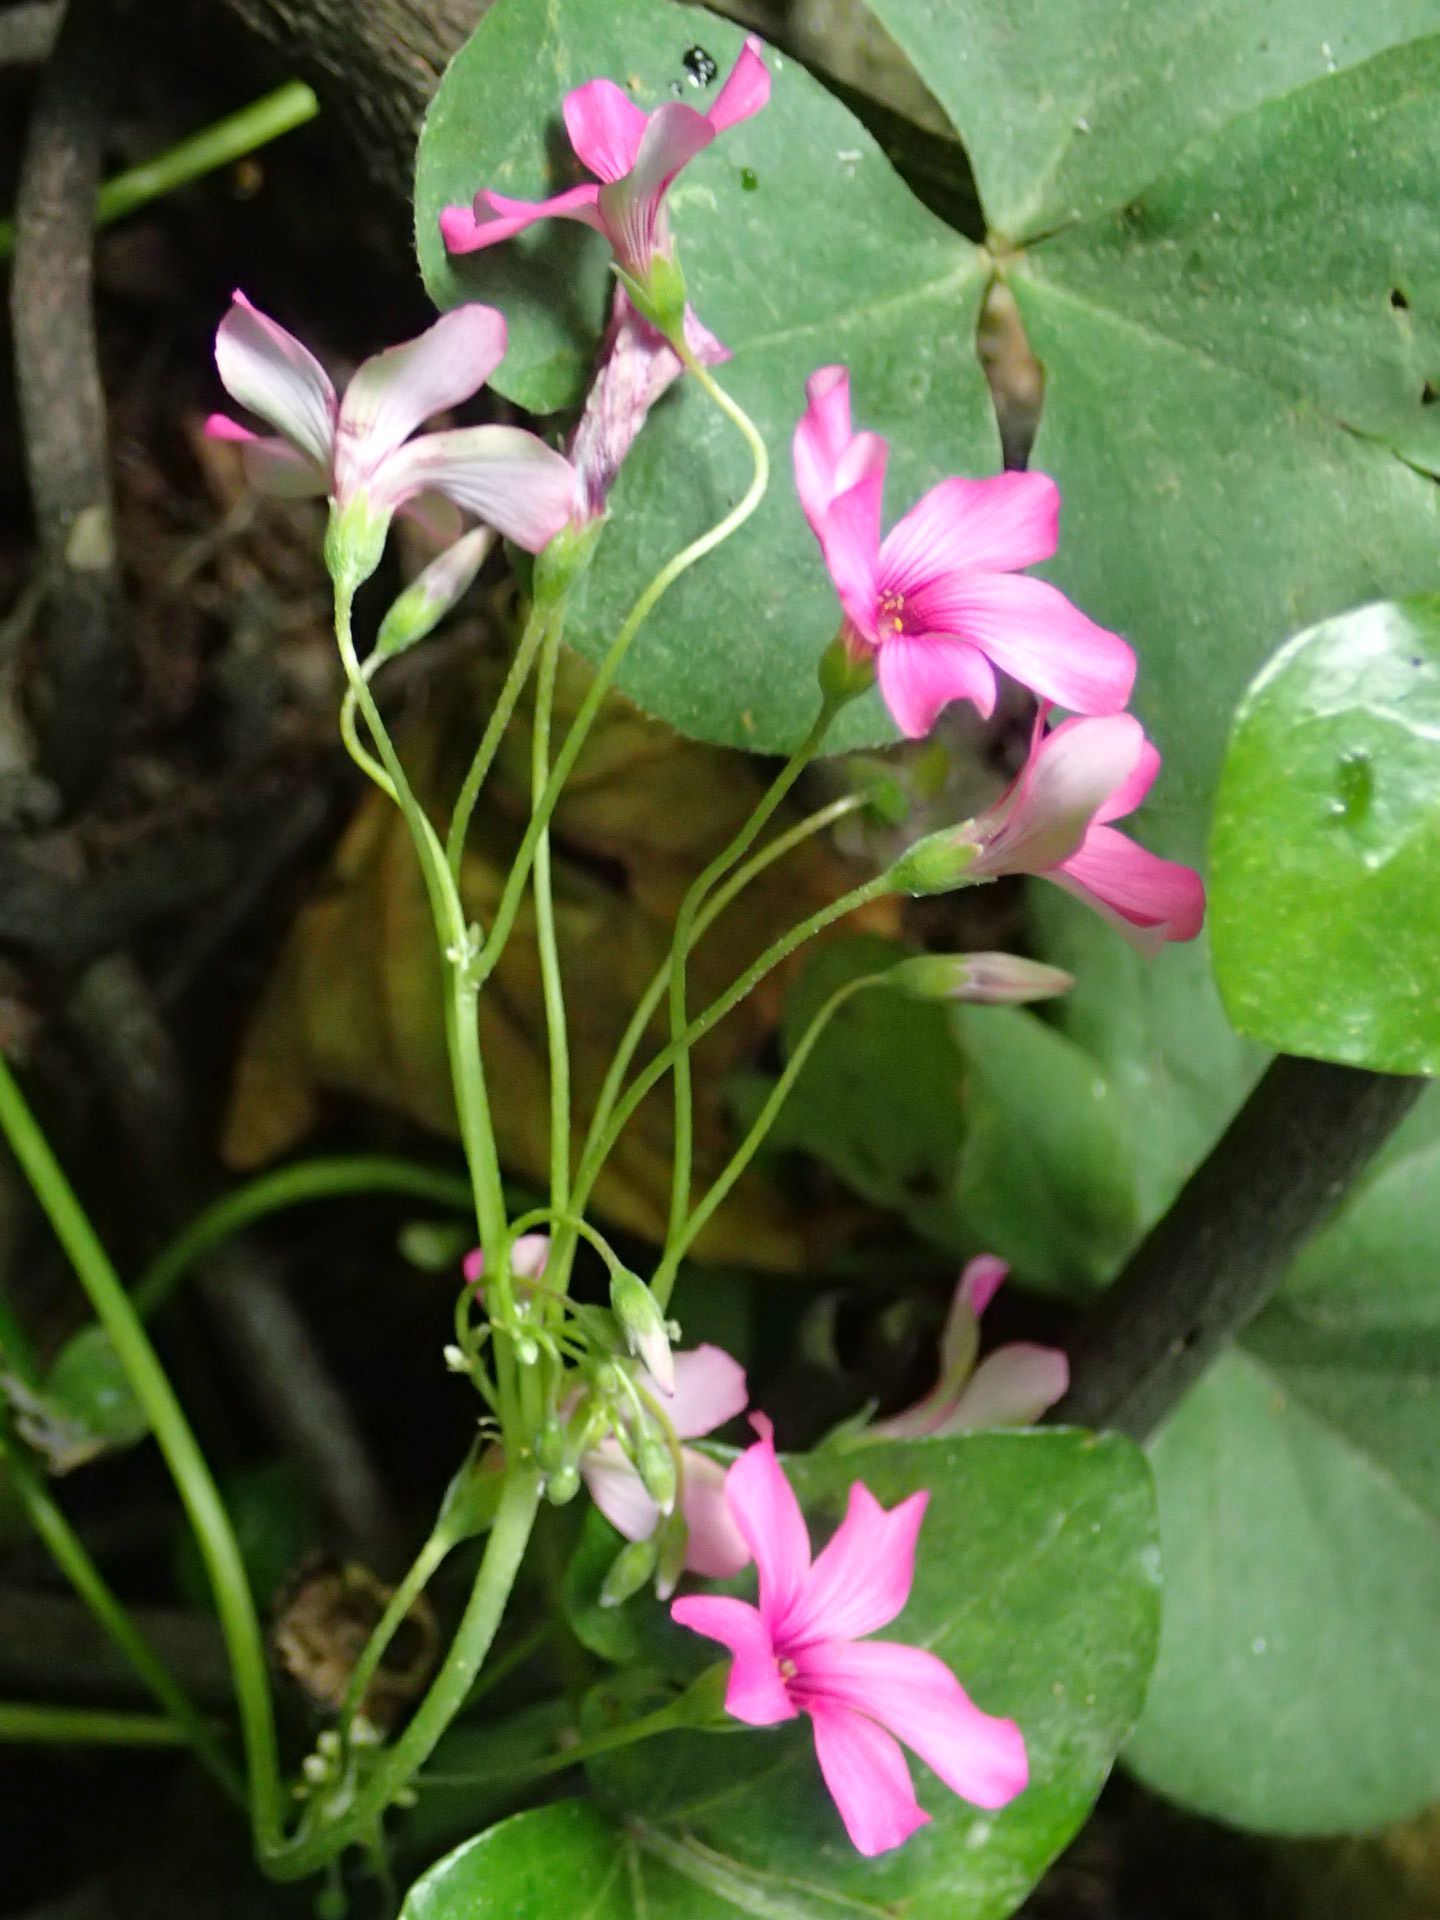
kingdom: Plantae
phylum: Tracheophyta
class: Magnoliopsida
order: Oxalidales
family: Oxalidaceae
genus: Oxalis
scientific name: Oxalis articulata
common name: Pink-sorrel
